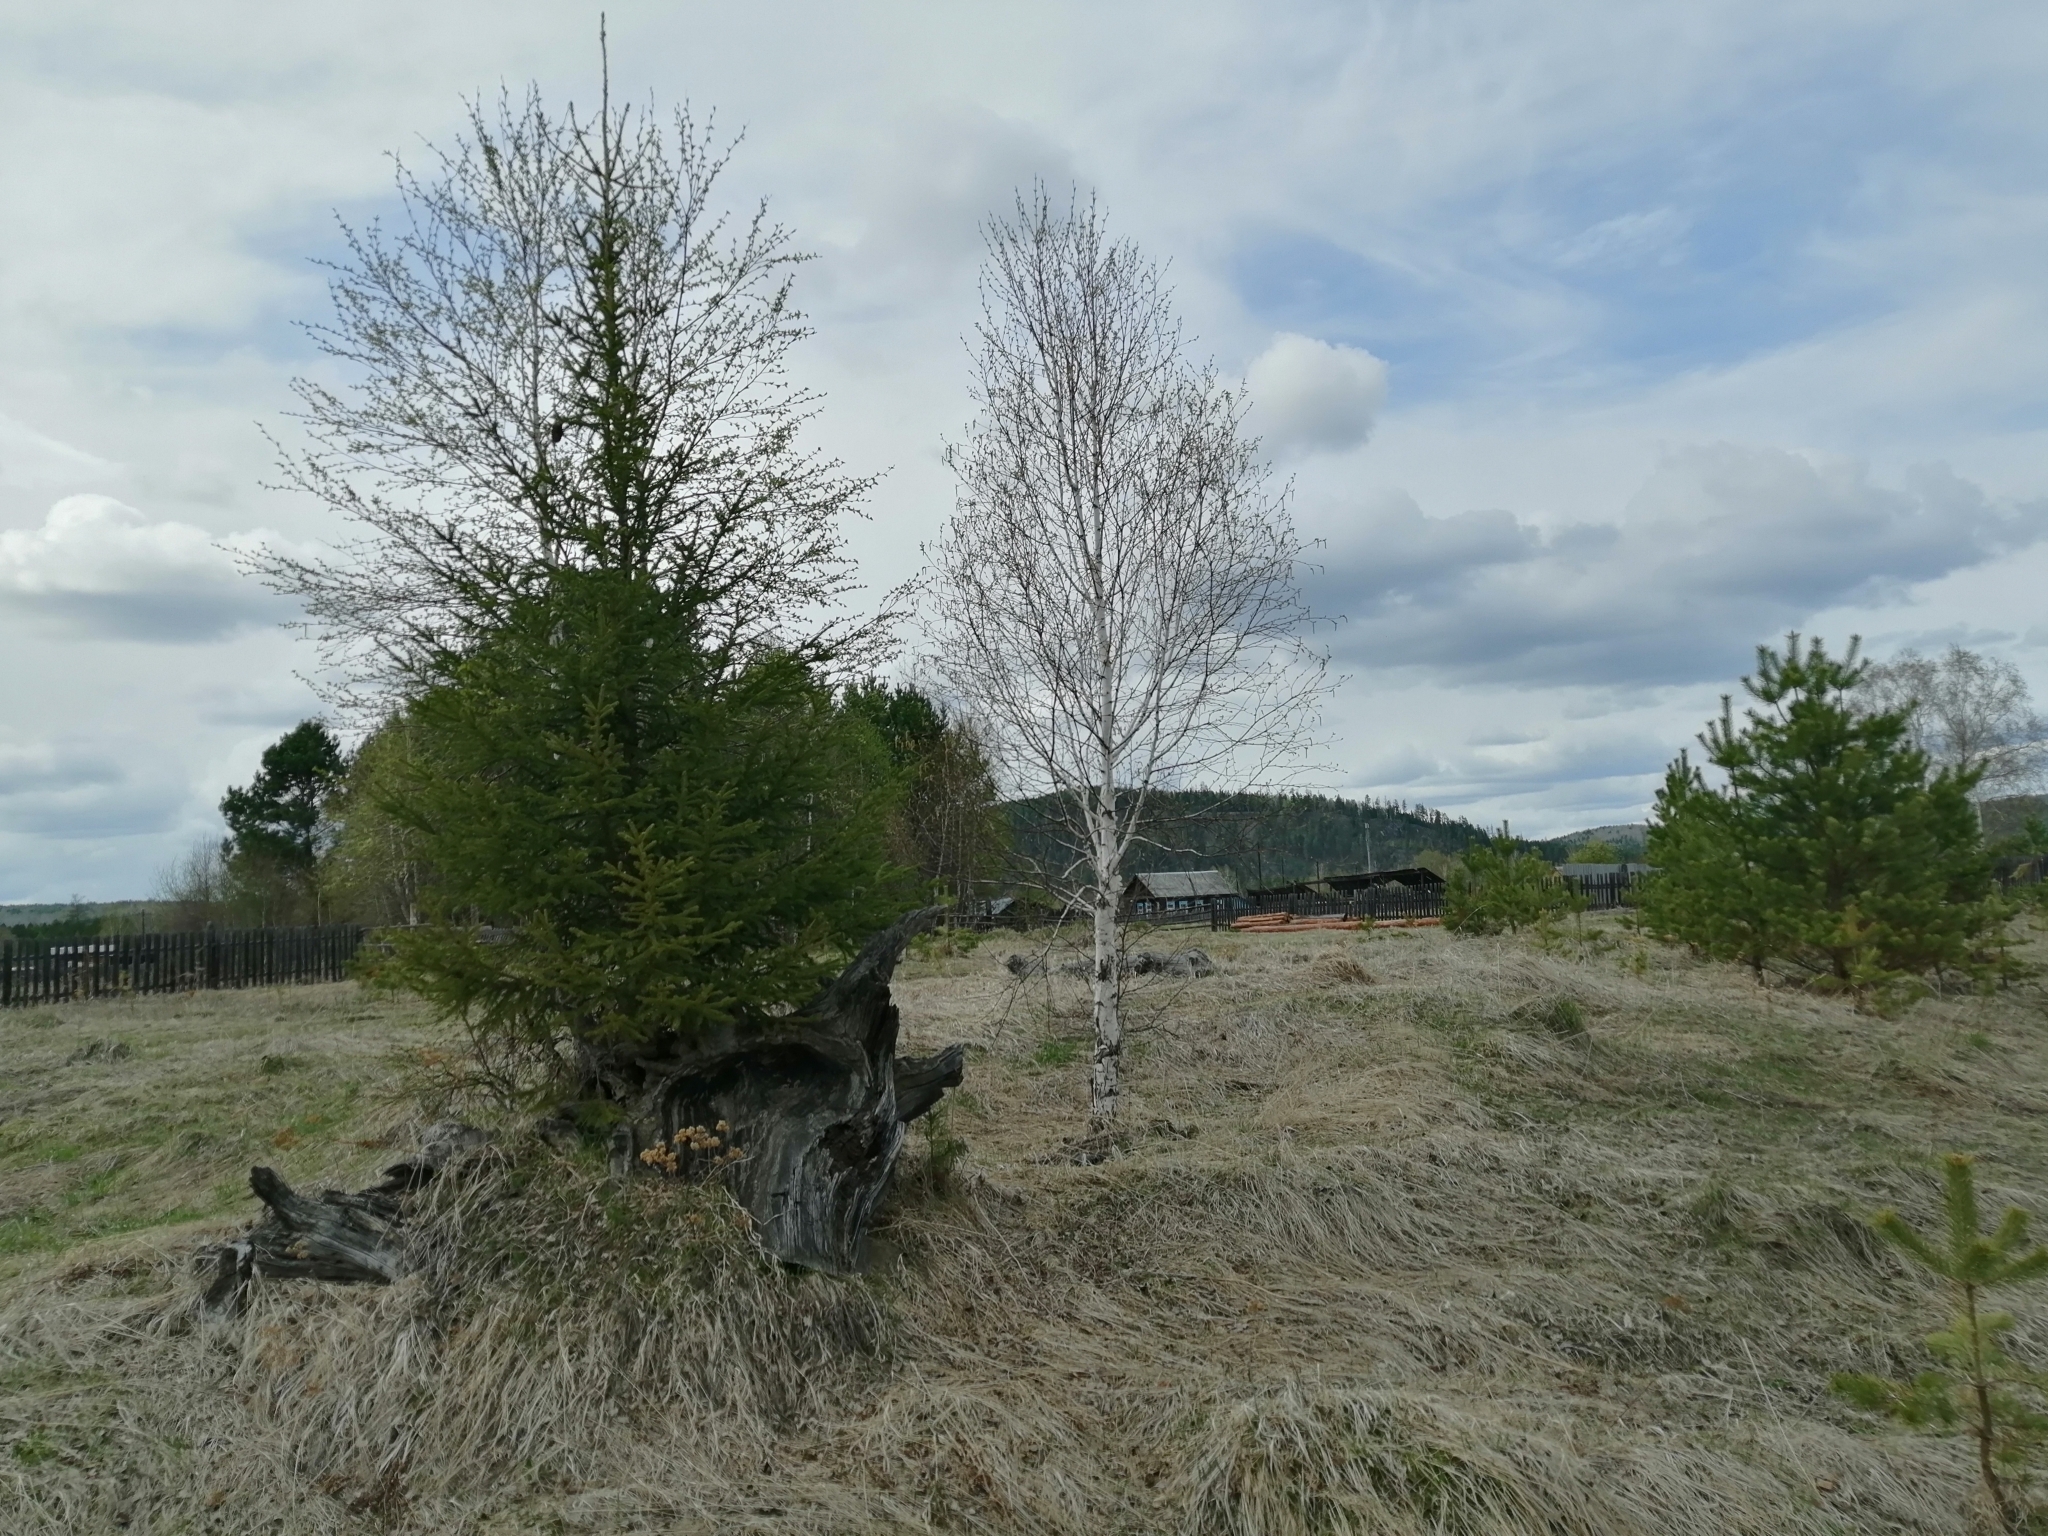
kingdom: Plantae
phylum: Tracheophyta
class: Pinopsida
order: Pinales
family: Pinaceae
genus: Picea
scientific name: Picea obovata
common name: Siberian spruce
